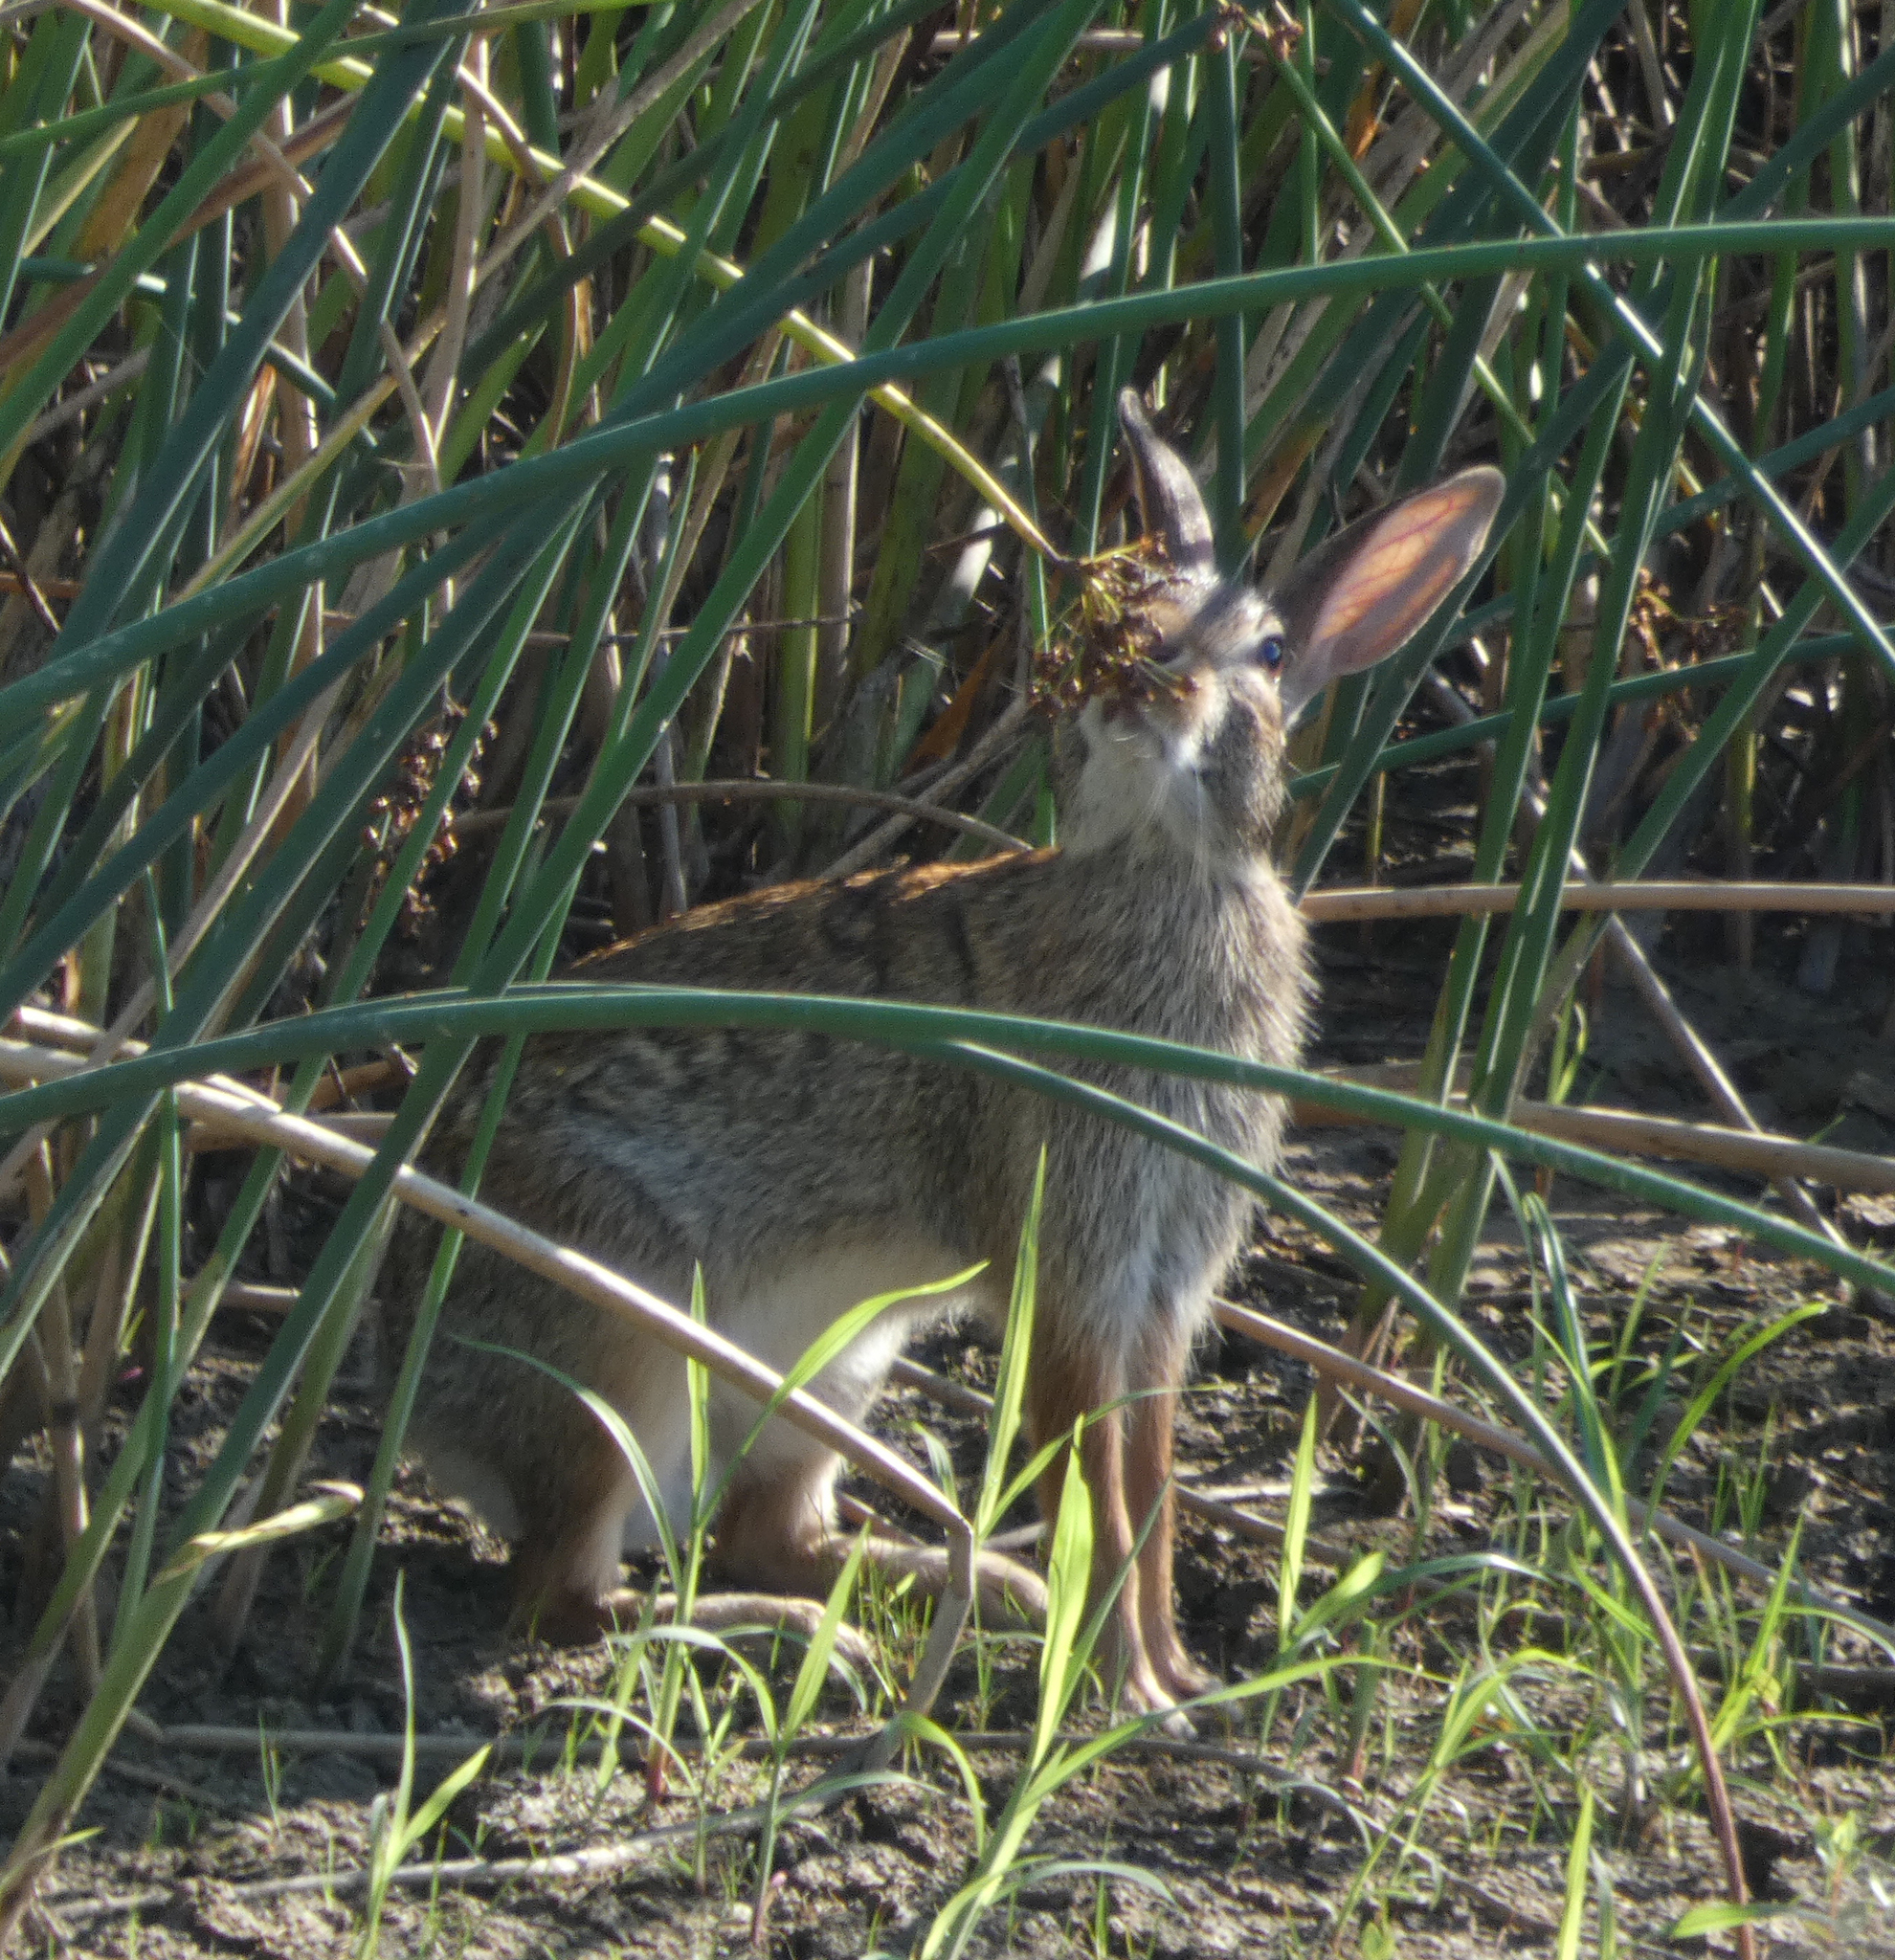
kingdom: Animalia
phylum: Chordata
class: Mammalia
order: Lagomorpha
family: Leporidae
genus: Sylvilagus
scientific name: Sylvilagus floridanus
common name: Eastern cottontail
